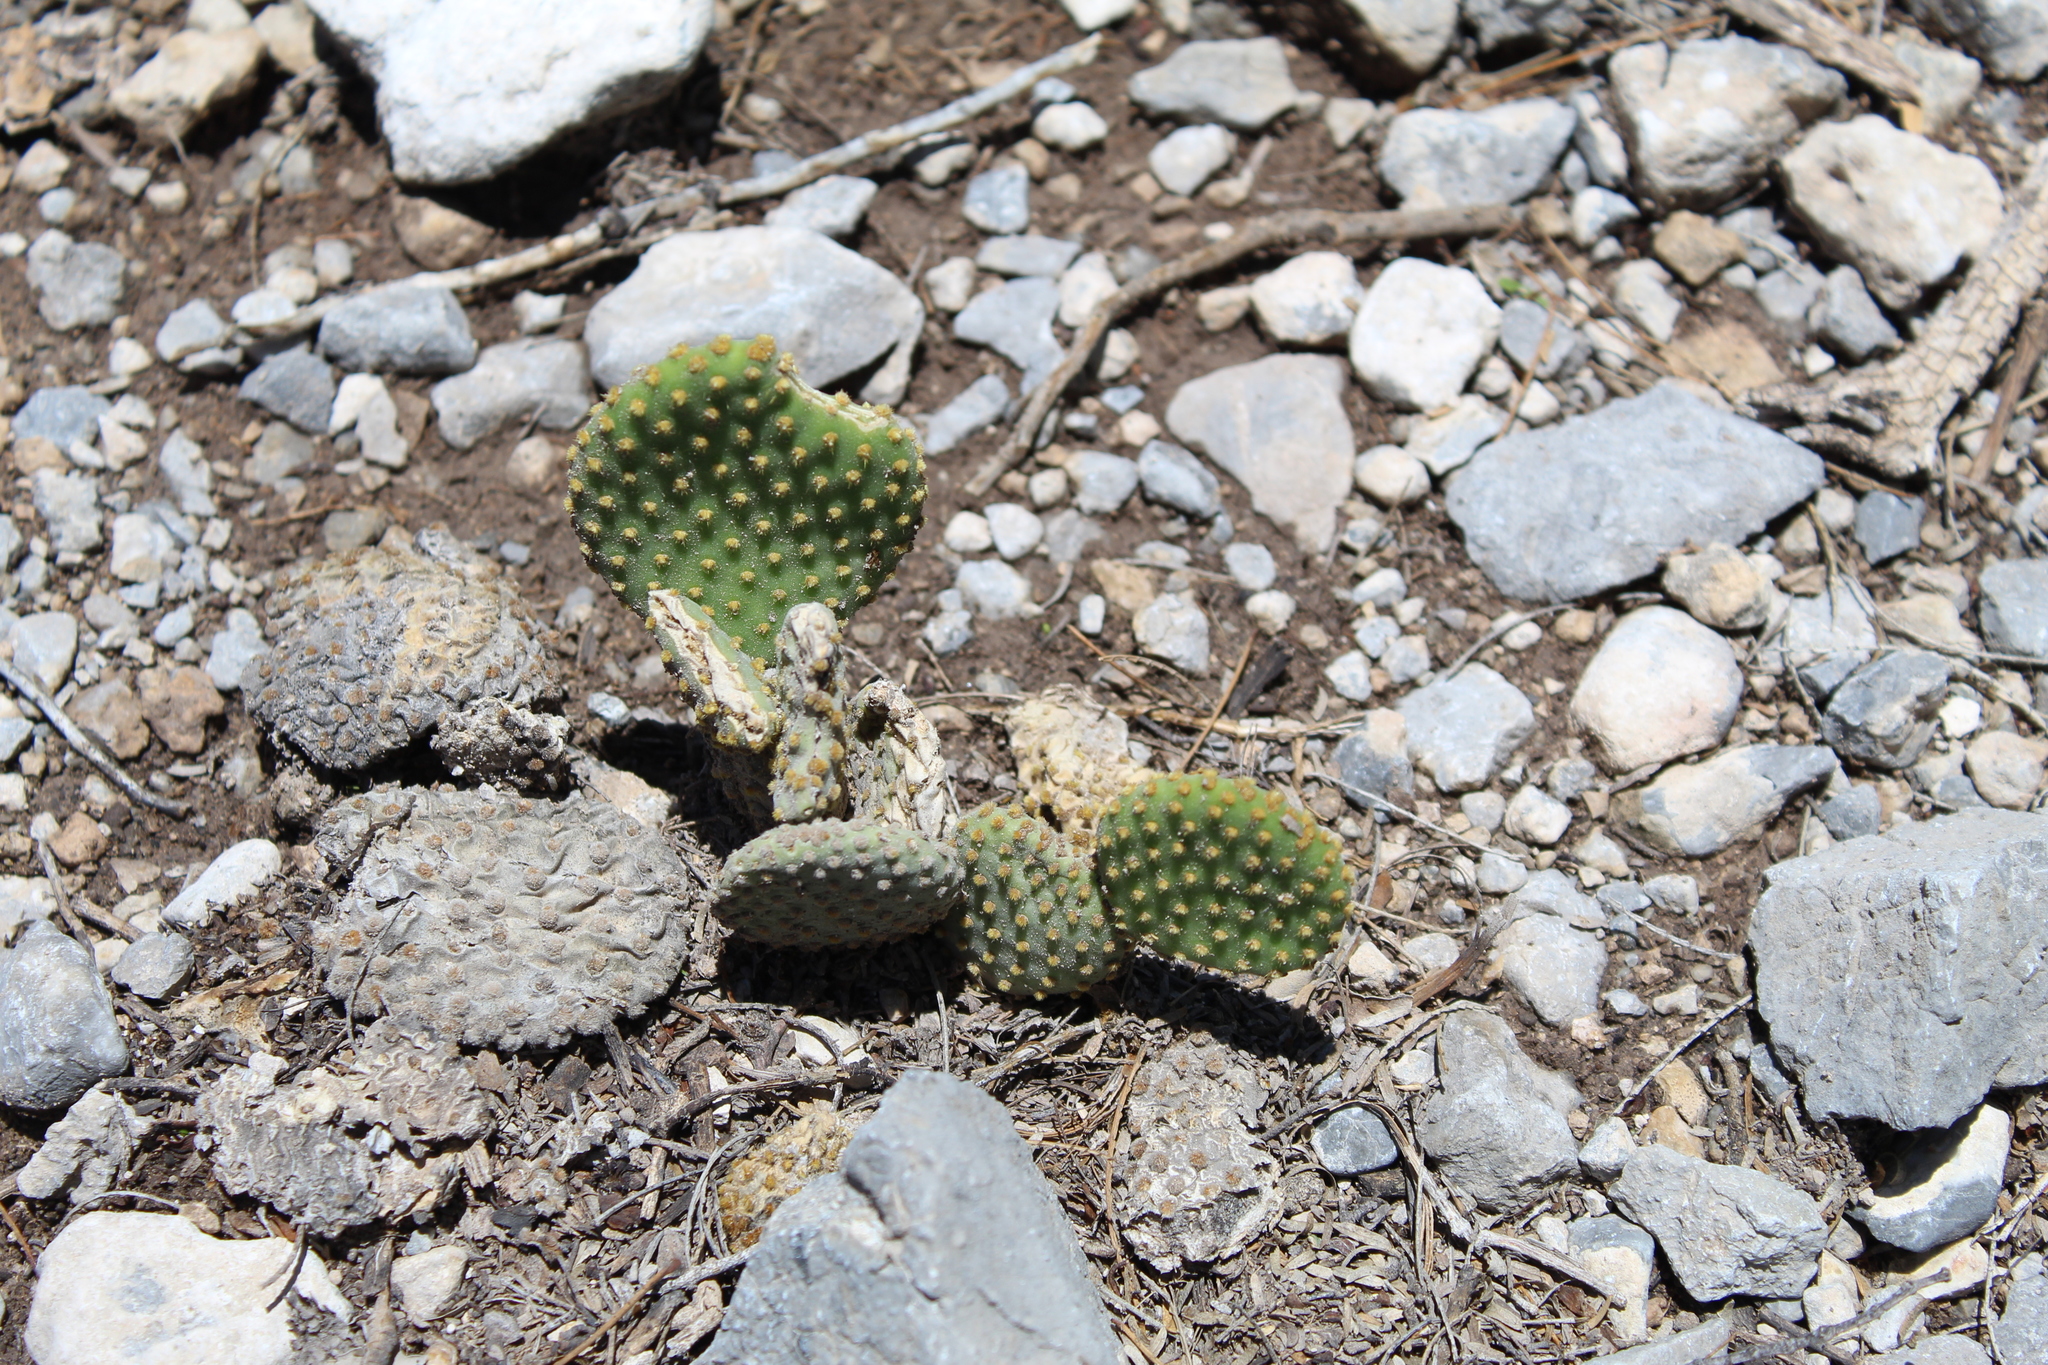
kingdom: Plantae
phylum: Tracheophyta
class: Magnoliopsida
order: Caryophyllales
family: Cactaceae
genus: Opuntia
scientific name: Opuntia microdasys
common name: Angel's-wings
